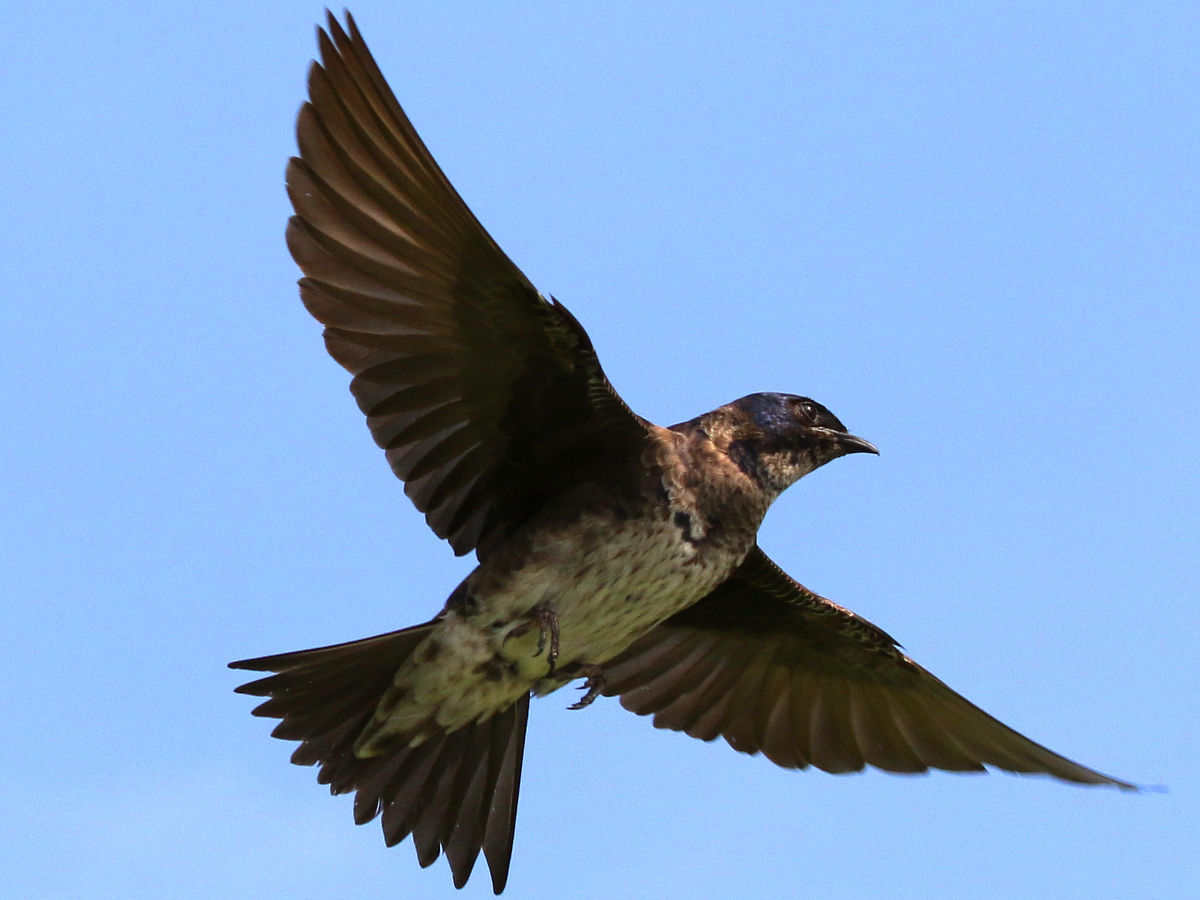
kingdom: Animalia
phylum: Chordata
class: Aves
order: Passeriformes
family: Hirundinidae
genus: Progne
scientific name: Progne subis
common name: Purple martin
